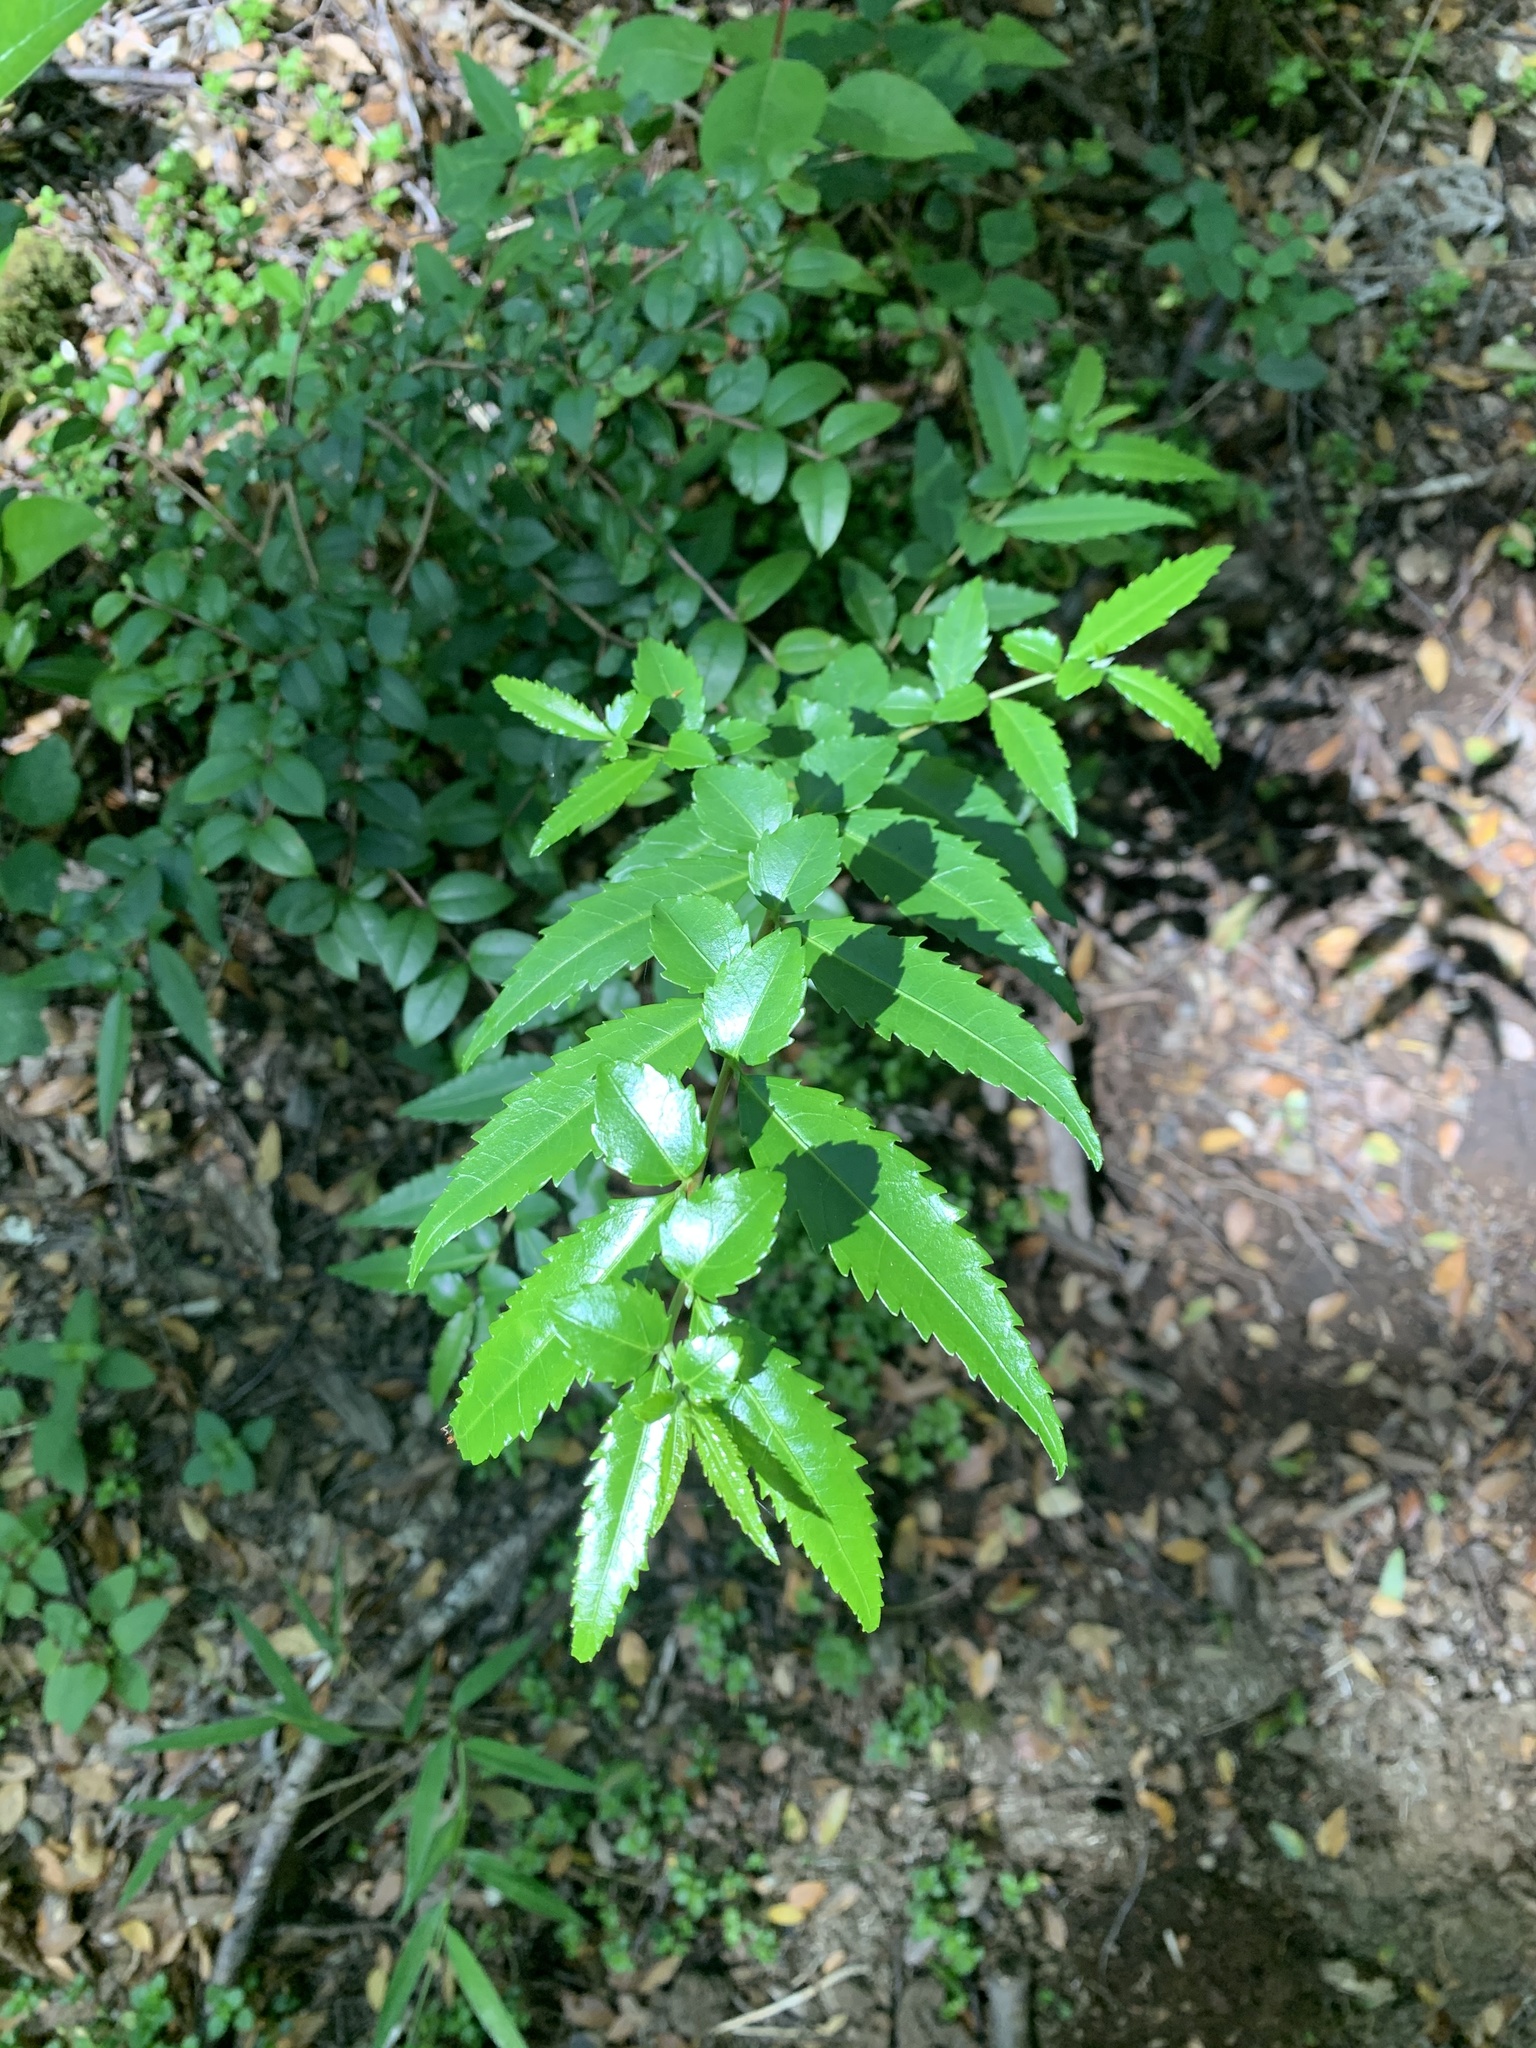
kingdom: Plantae
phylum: Tracheophyta
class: Magnoliopsida
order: Malpighiales
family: Salicaceae
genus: Azara
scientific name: Azara lanceolata
